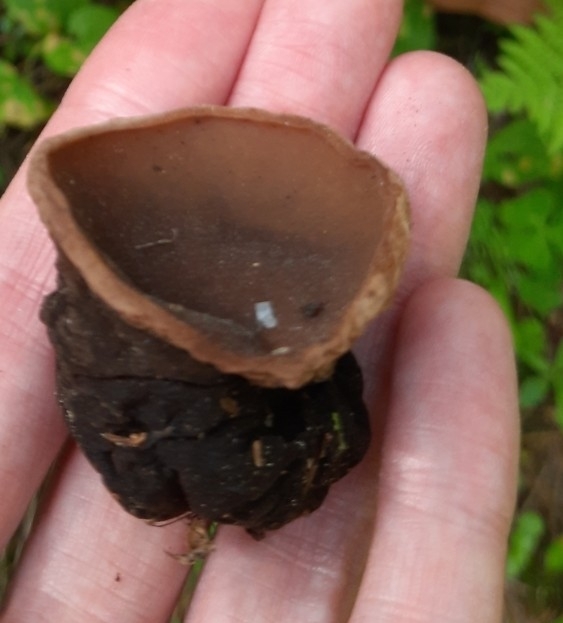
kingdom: Fungi
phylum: Ascomycota
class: Pezizomycetes
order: Pezizales
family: Sarcosomataceae
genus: Sarcosoma
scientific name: Sarcosoma globosum
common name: Charred-pancake cup
